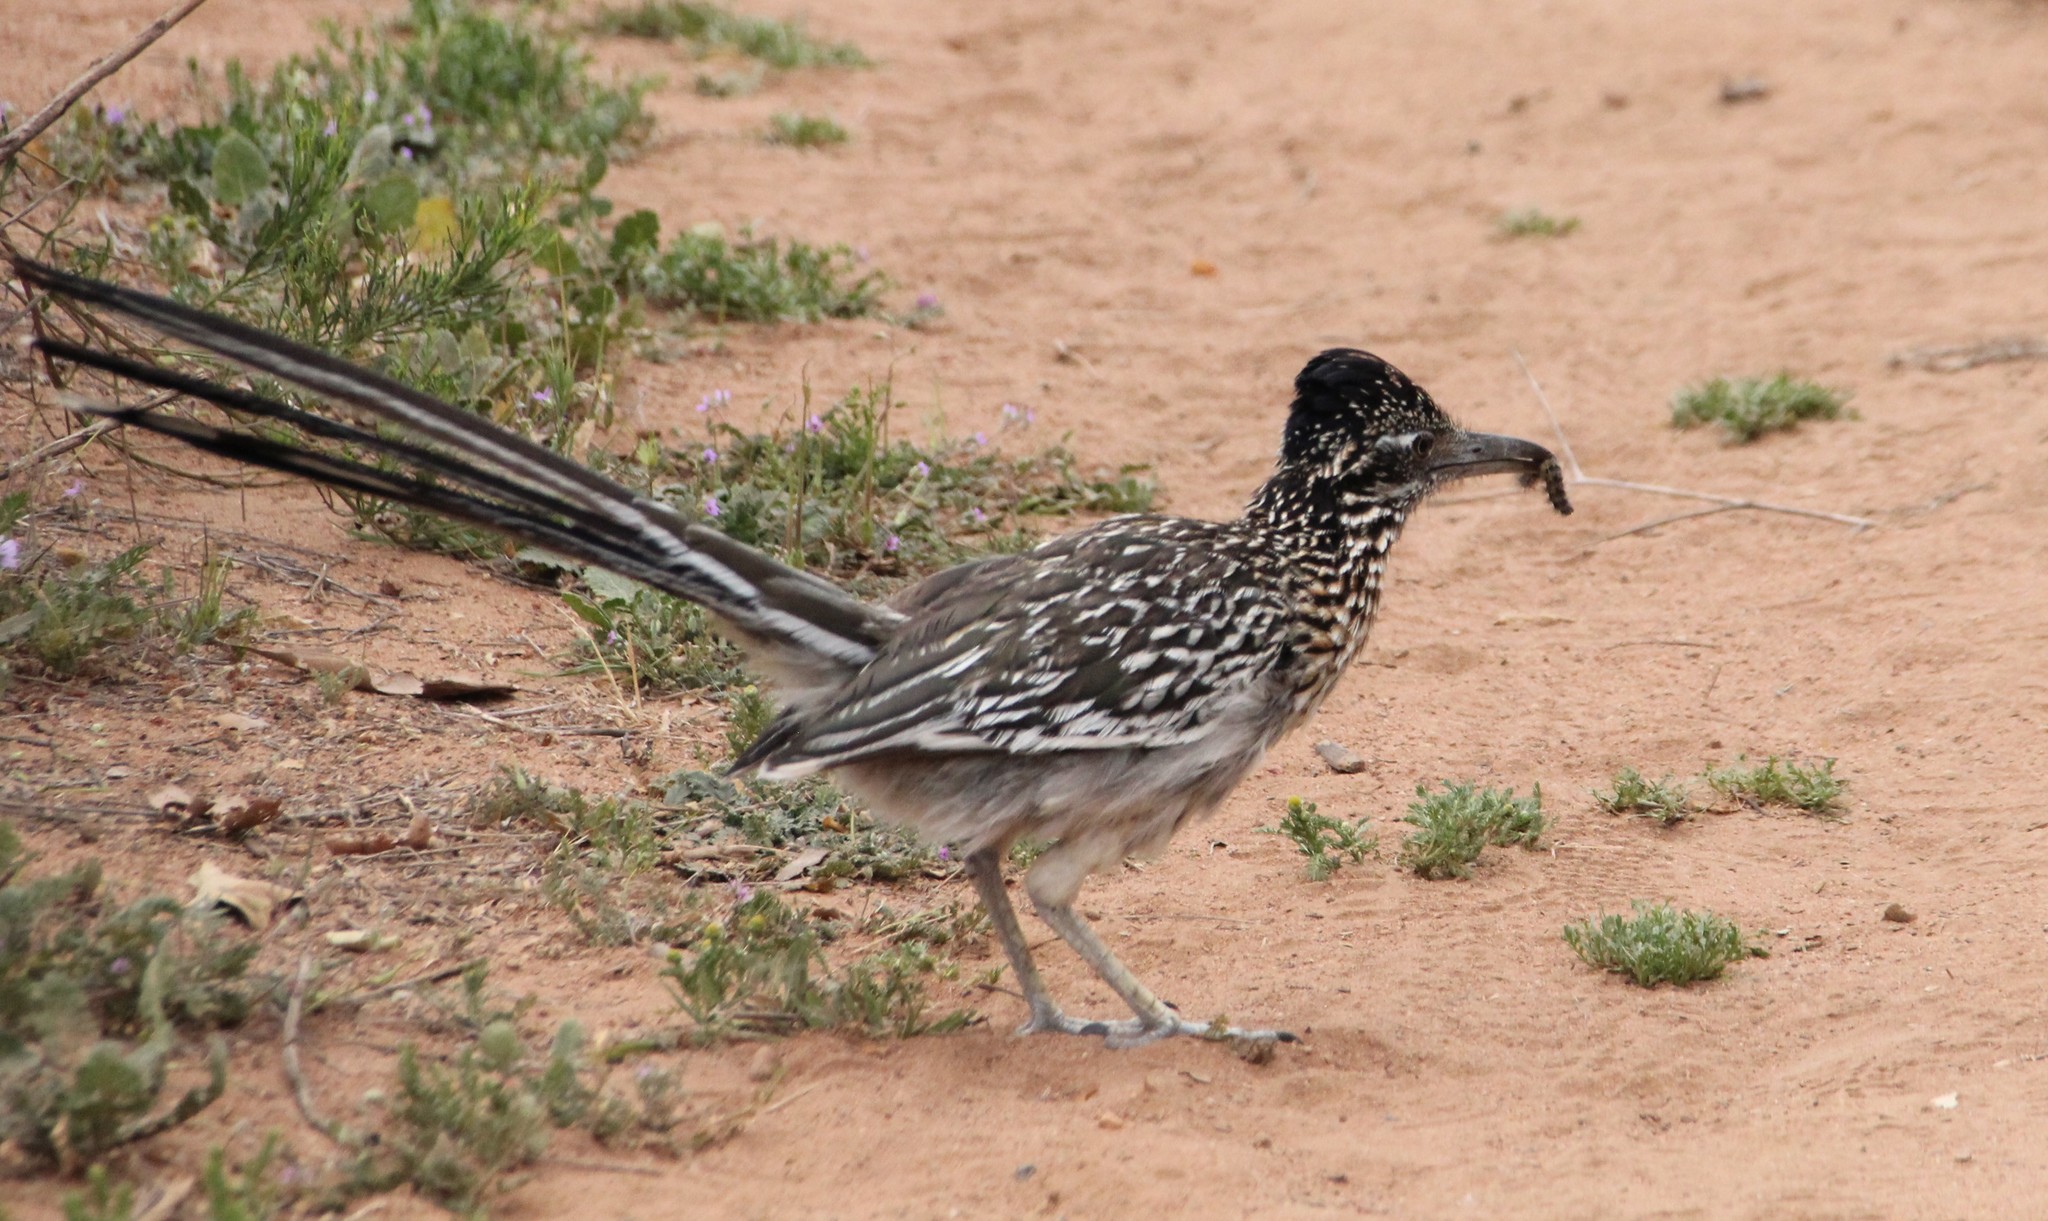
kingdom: Animalia
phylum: Chordata
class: Aves
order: Cuculiformes
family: Cuculidae
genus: Geococcyx
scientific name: Geococcyx californianus
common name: Greater roadrunner
